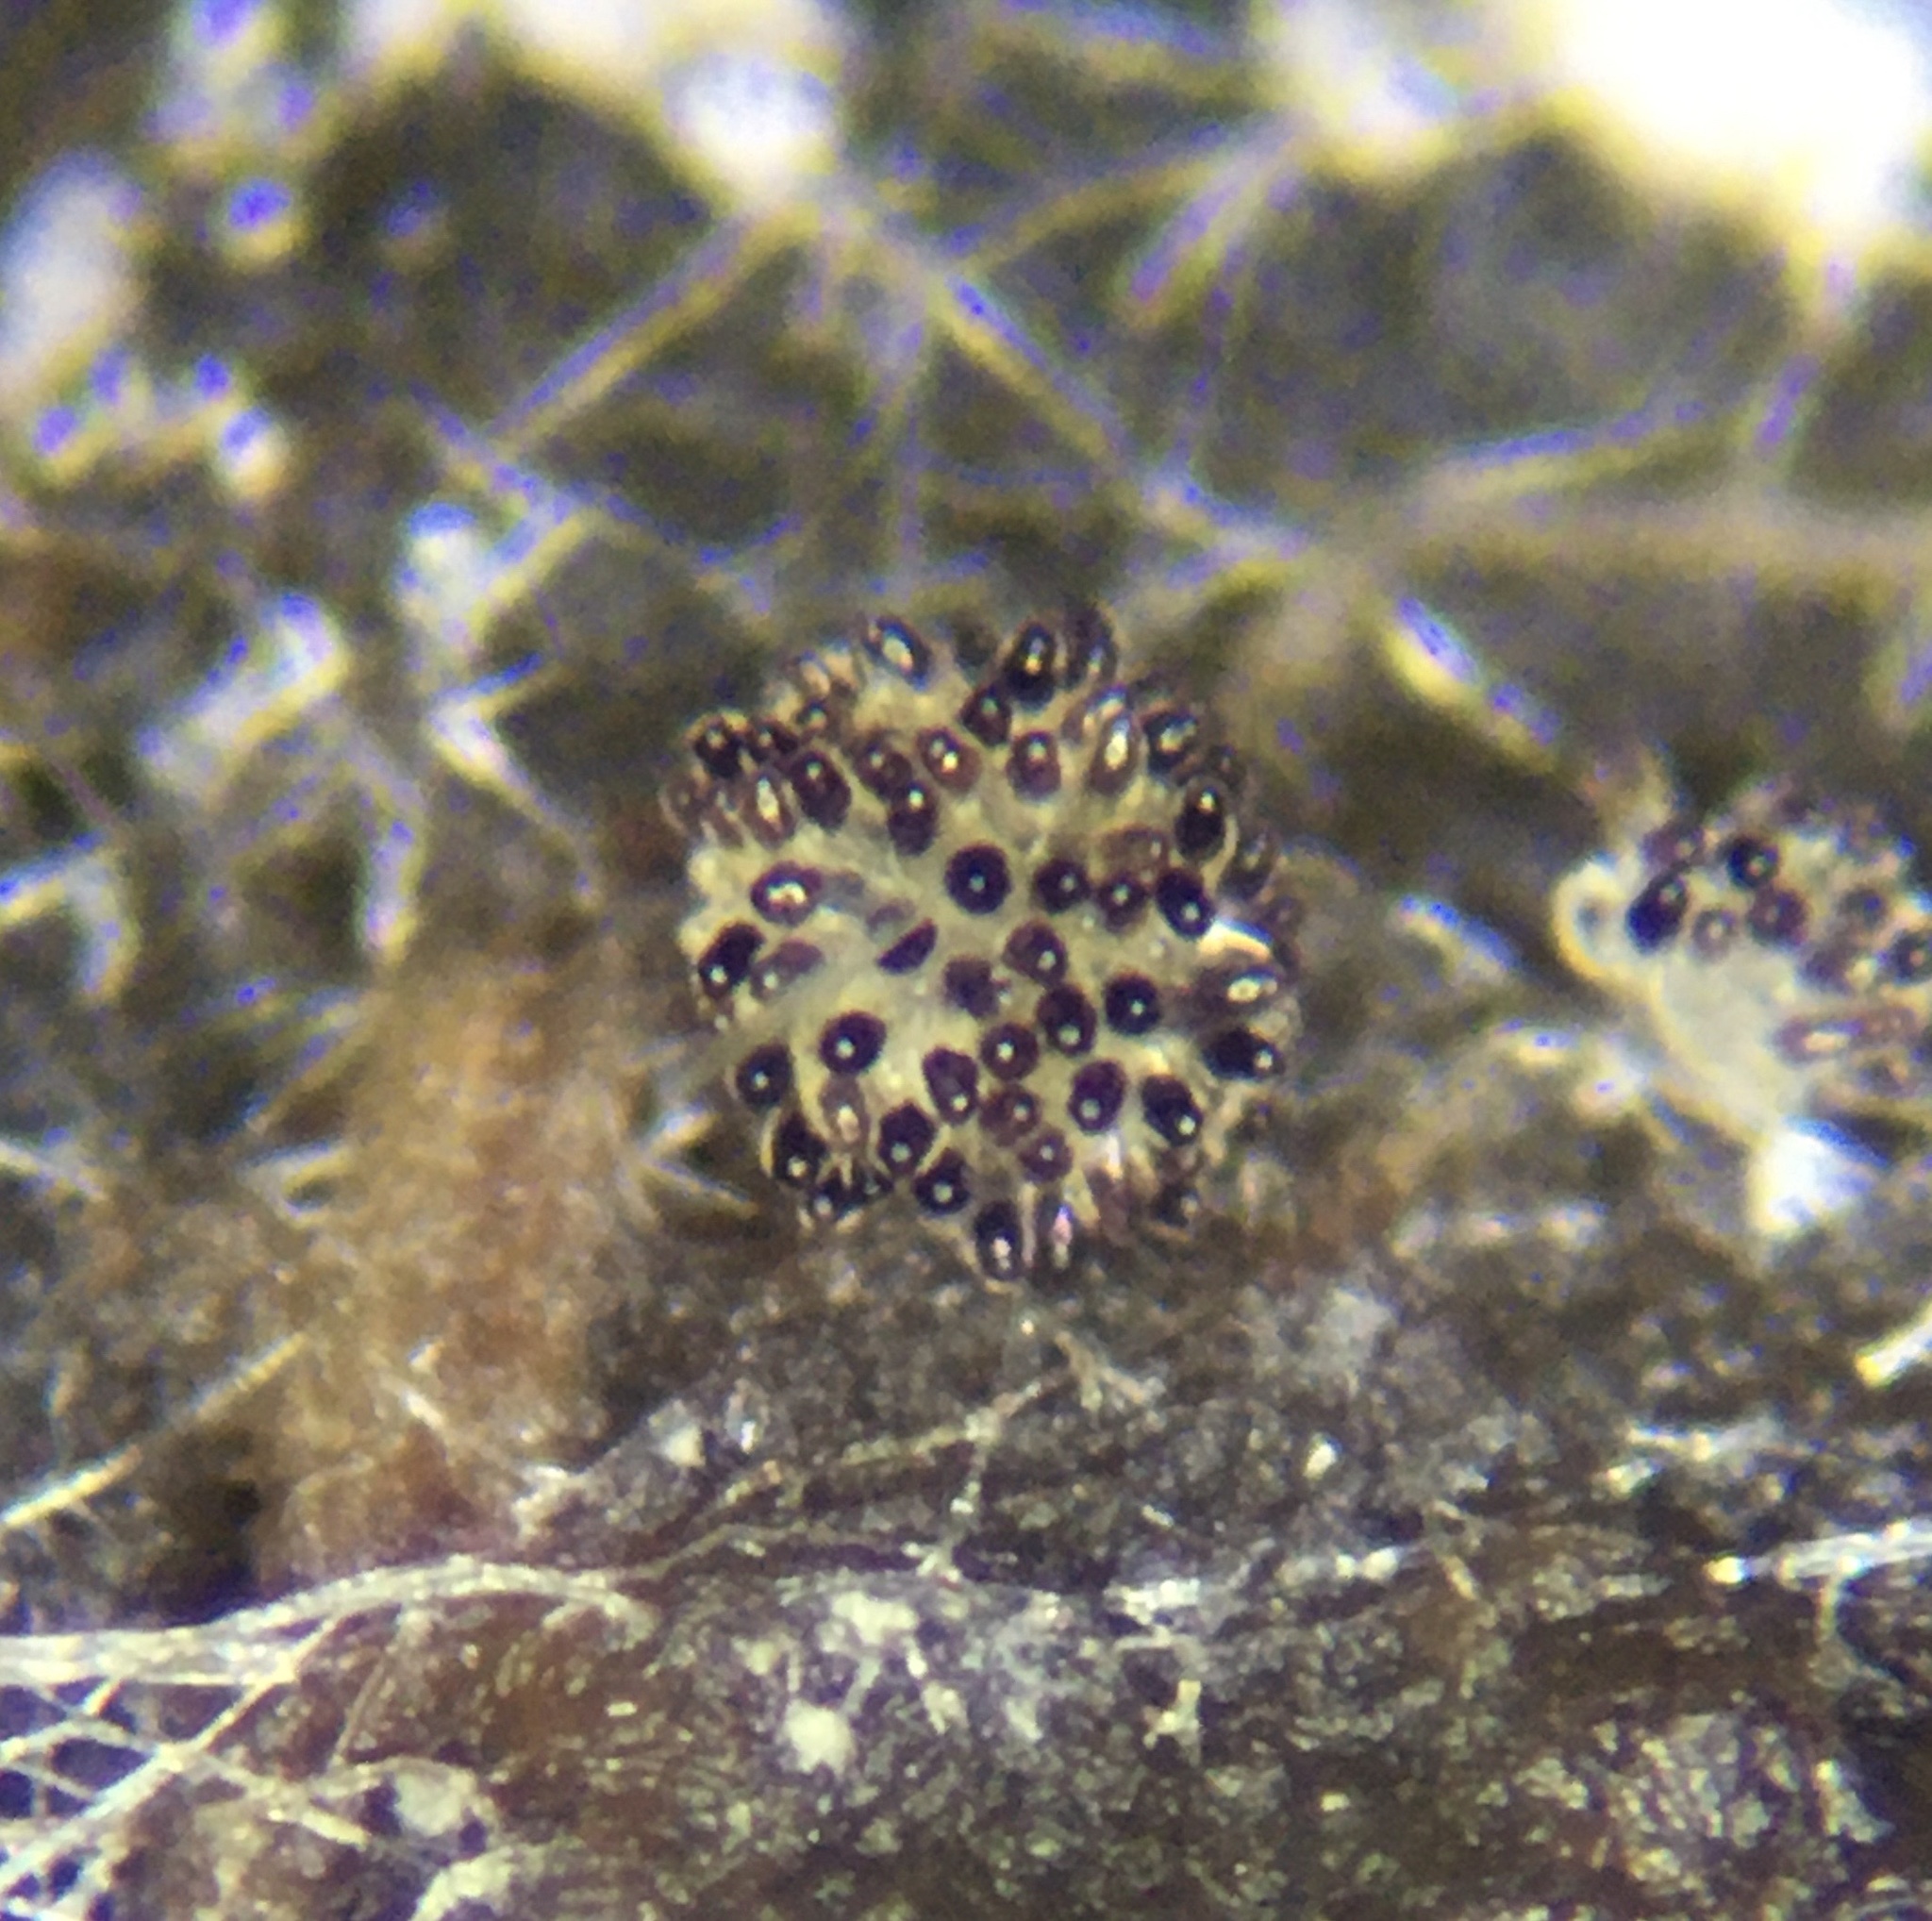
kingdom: Fungi
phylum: Ascomycota
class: Pezizomycetes
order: Pezizales
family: Ascobolaceae
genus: Saccobolus
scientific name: Saccobolus minimus
